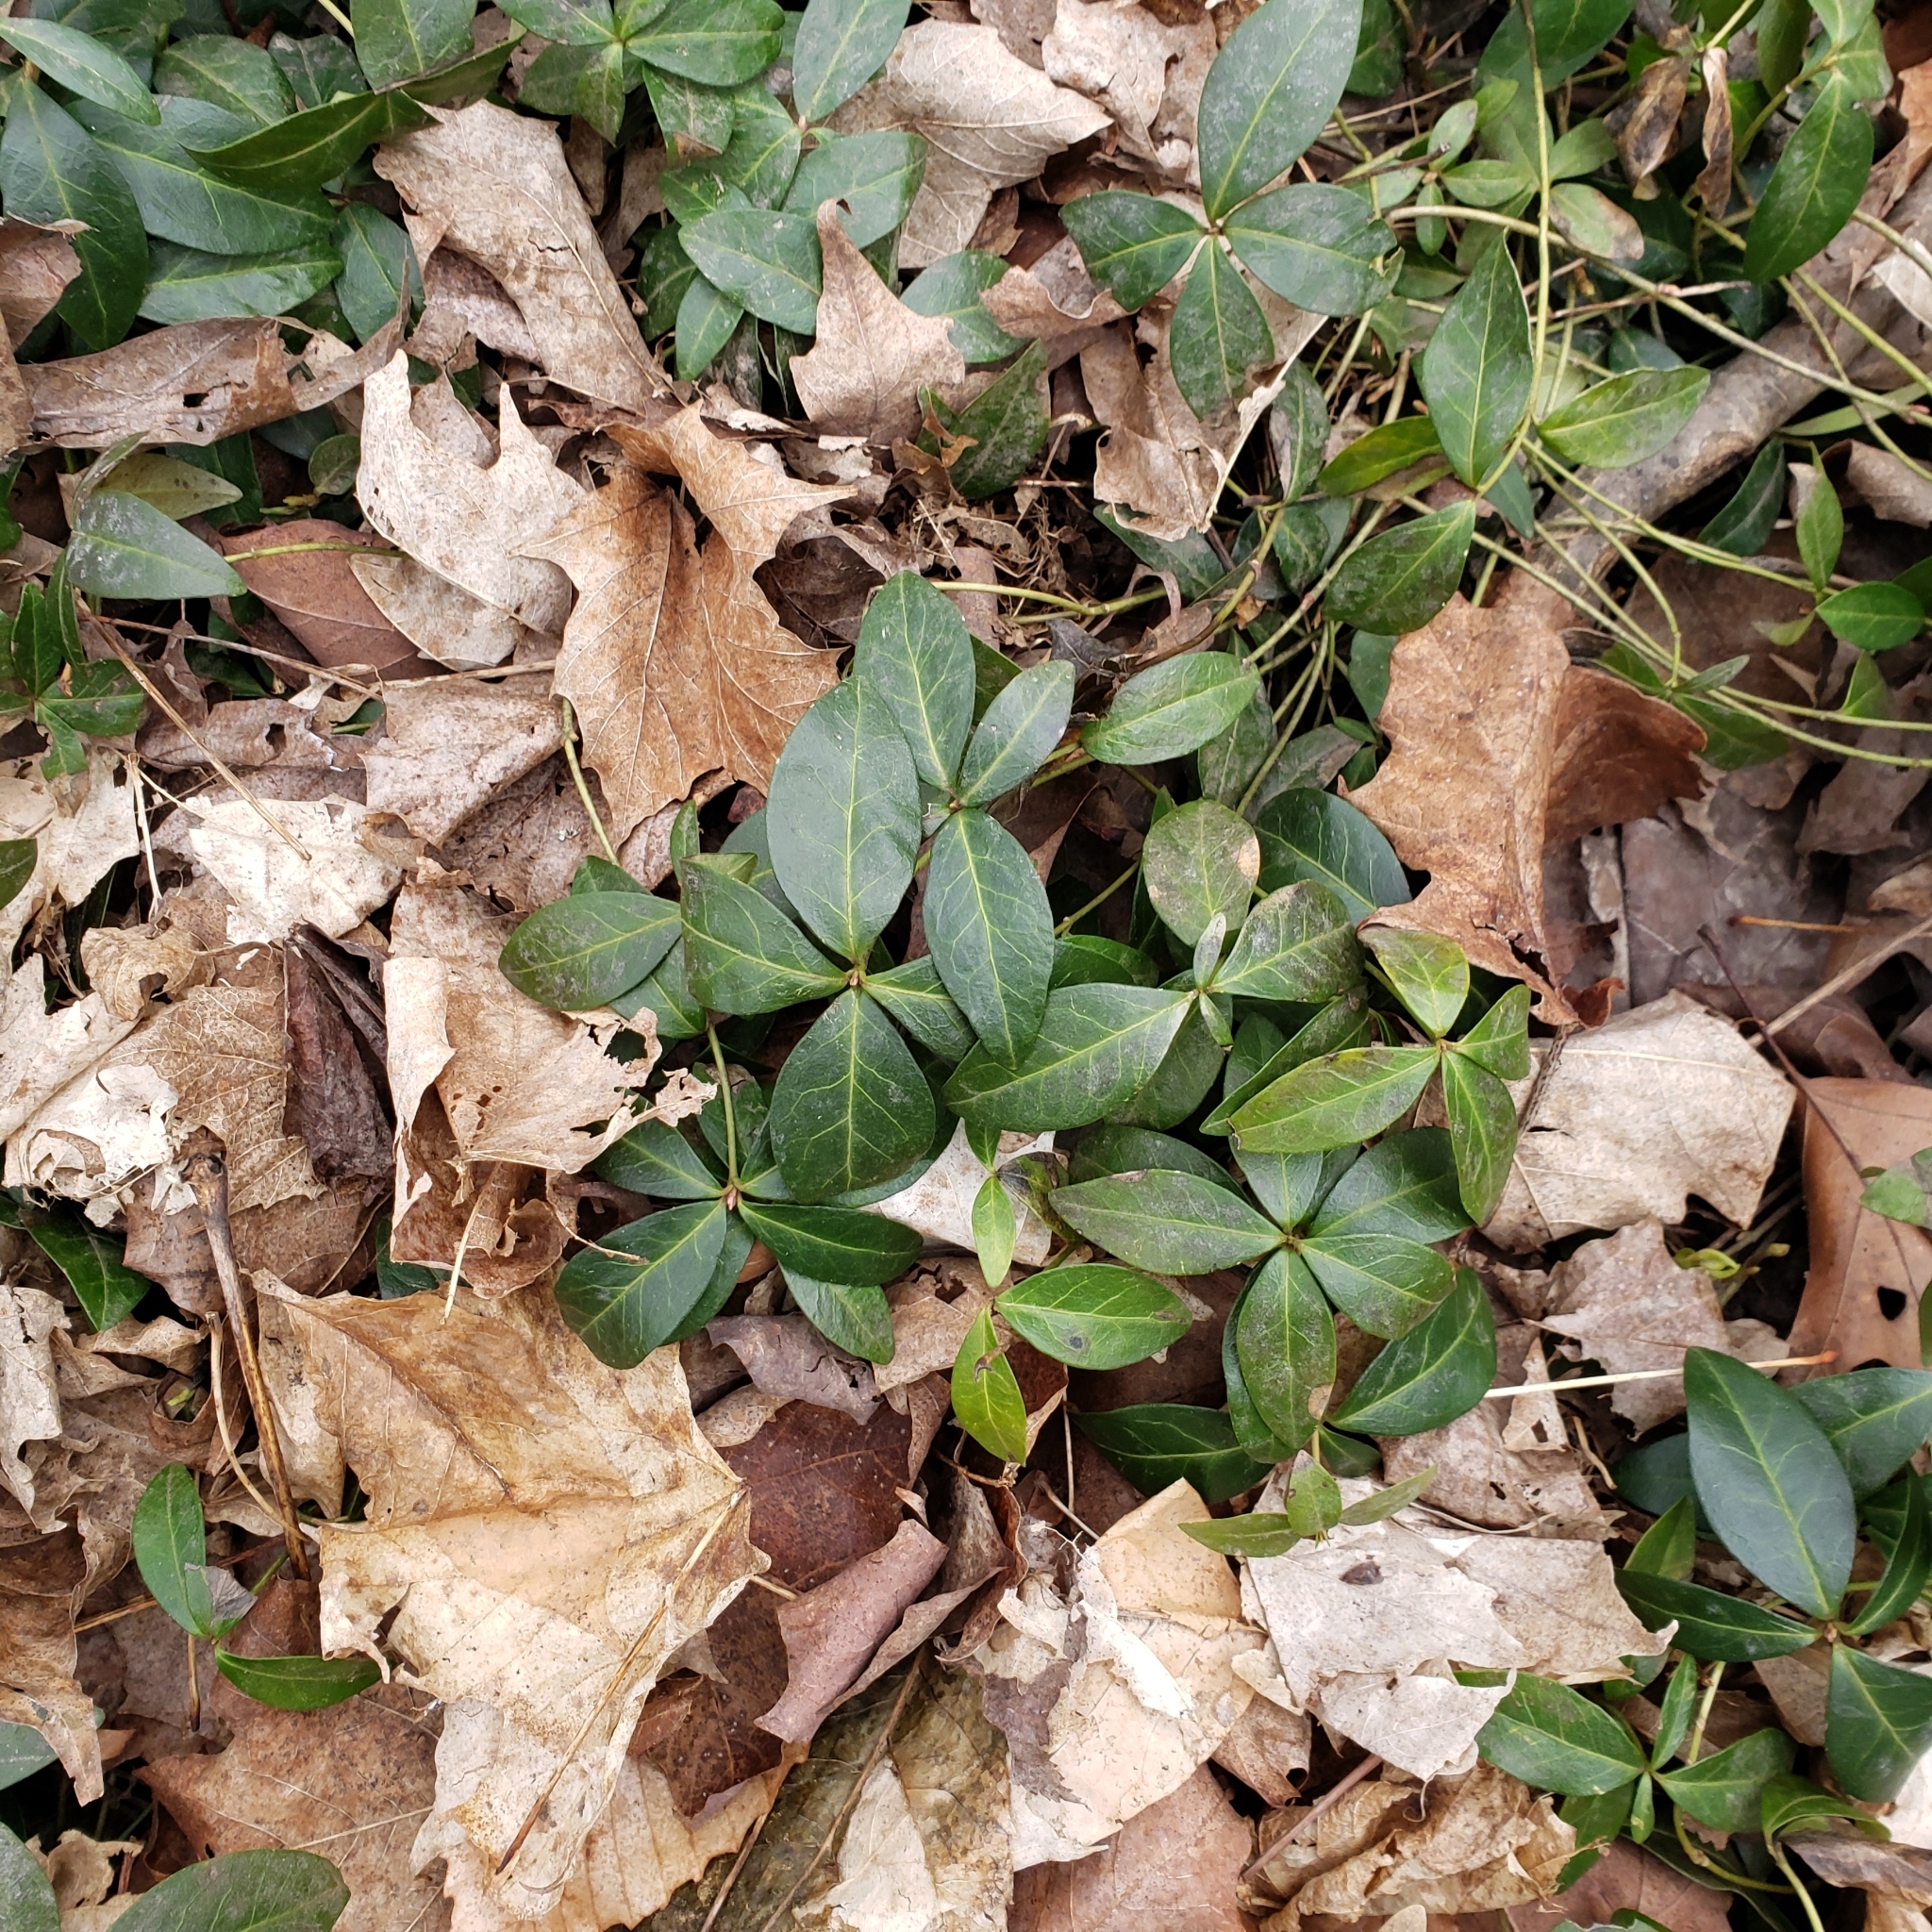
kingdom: Plantae
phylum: Tracheophyta
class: Magnoliopsida
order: Gentianales
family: Apocynaceae
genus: Vinca
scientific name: Vinca minor
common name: Lesser periwinkle
